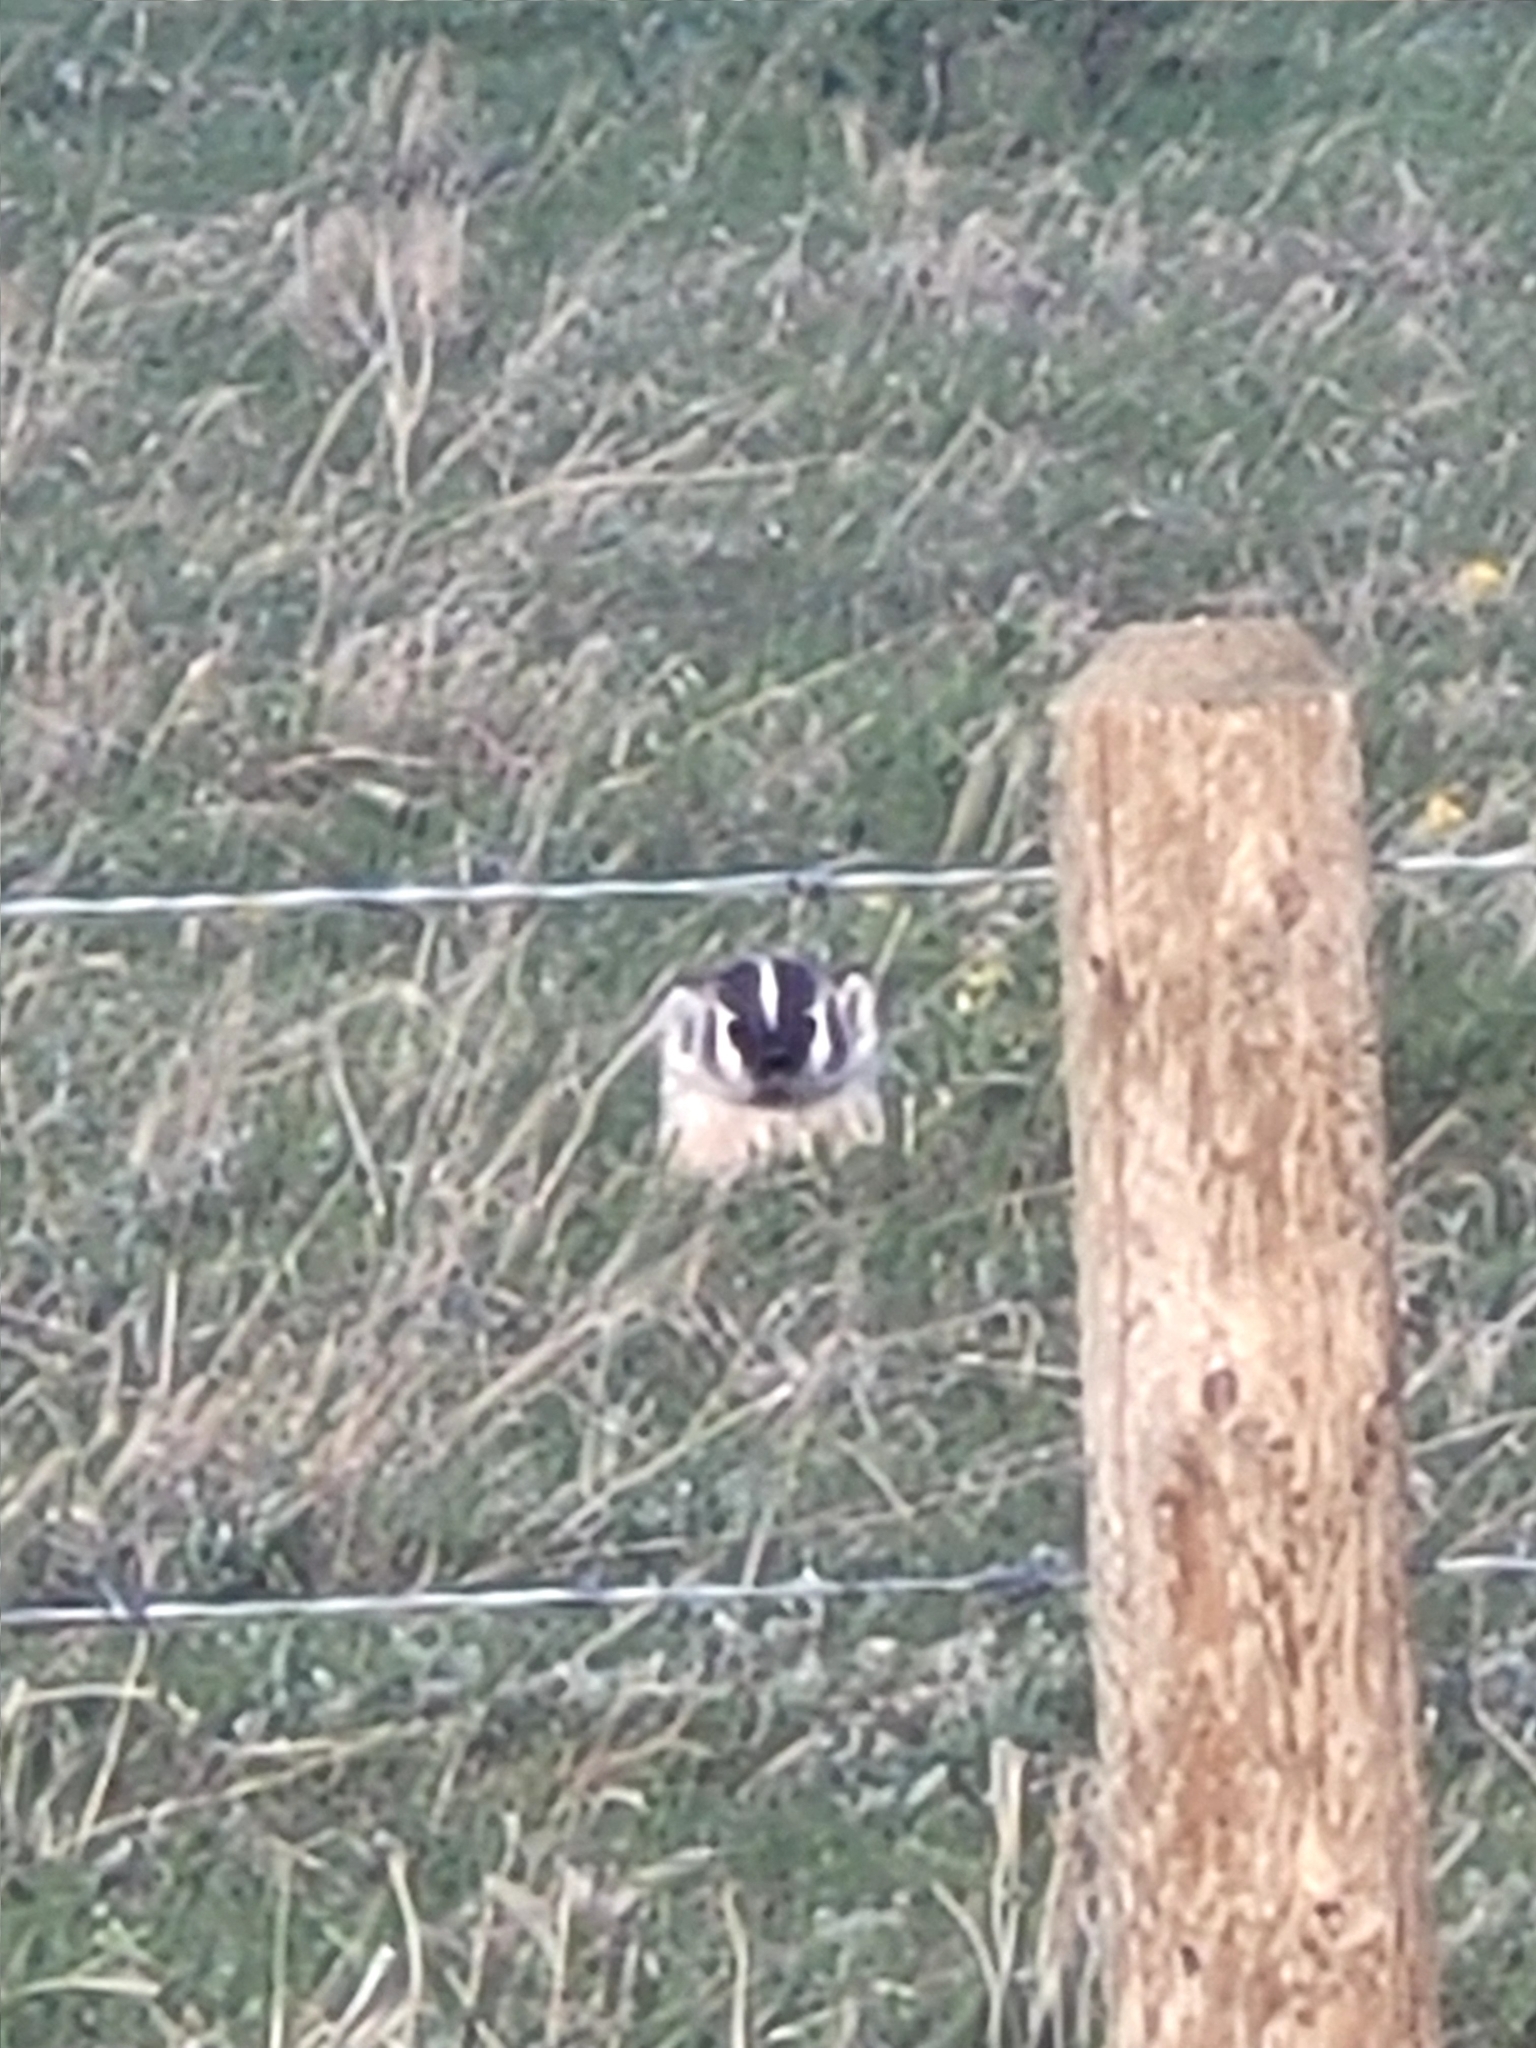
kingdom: Animalia
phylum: Chordata
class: Mammalia
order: Carnivora
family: Mustelidae
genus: Taxidea
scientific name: Taxidea taxus
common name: American badger
